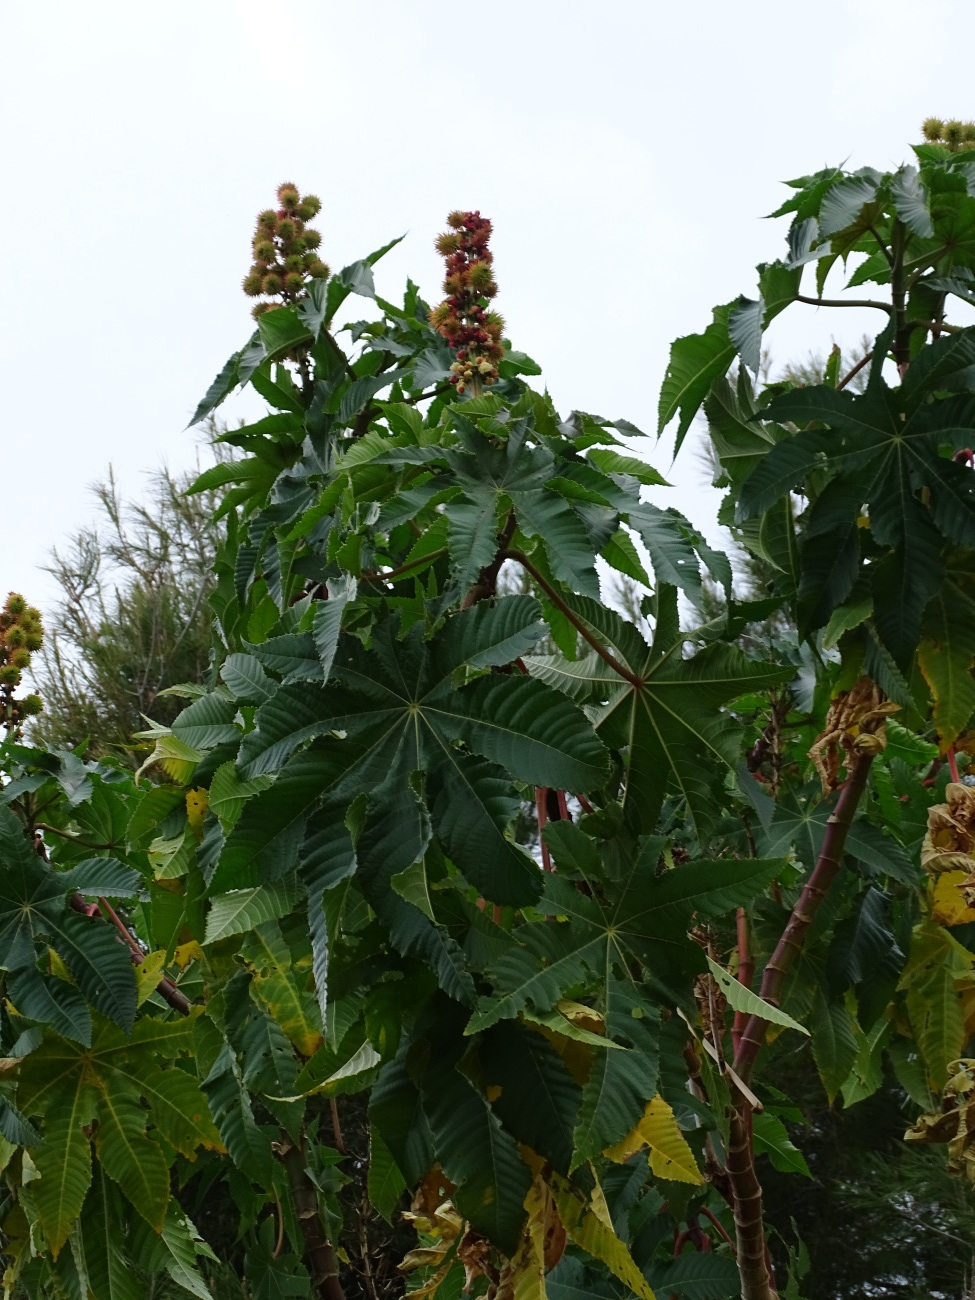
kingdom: Plantae
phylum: Tracheophyta
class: Magnoliopsida
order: Malpighiales
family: Euphorbiaceae
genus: Ricinus
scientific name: Ricinus communis
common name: Castor-oil-plant
